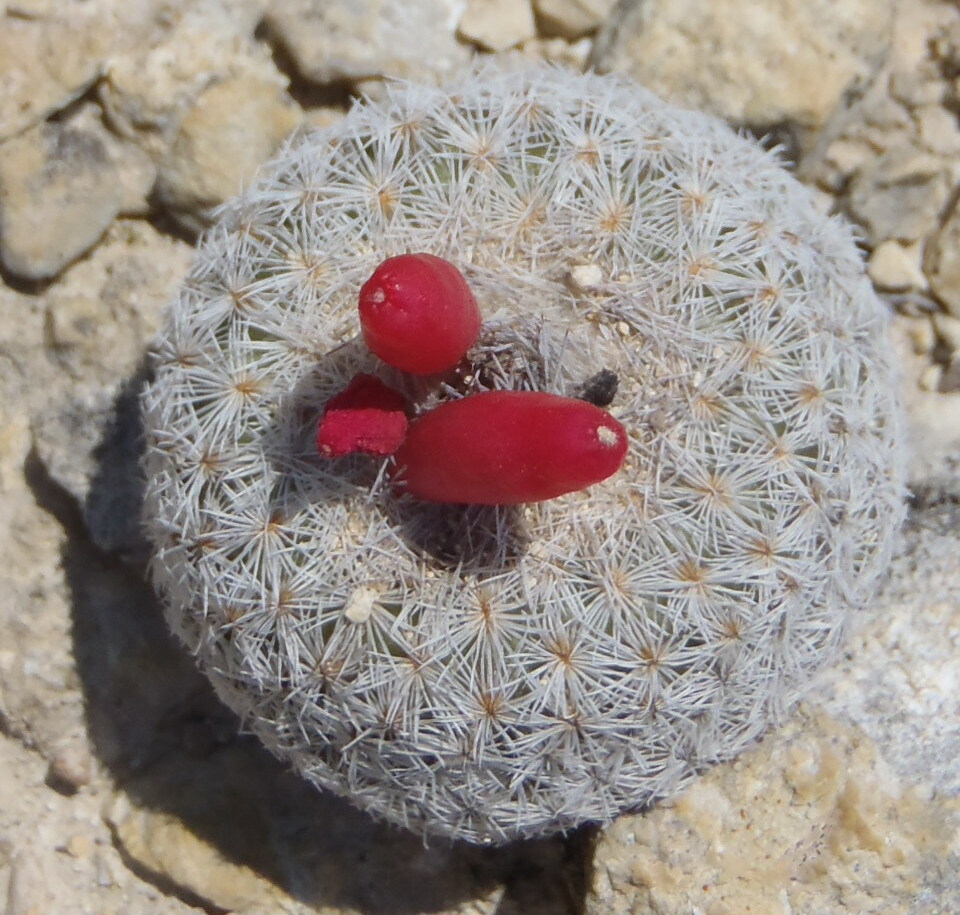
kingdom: Plantae
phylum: Tracheophyta
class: Magnoliopsida
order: Caryophyllales
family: Cactaceae
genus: Epithelantha
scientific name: Epithelantha micromeris
